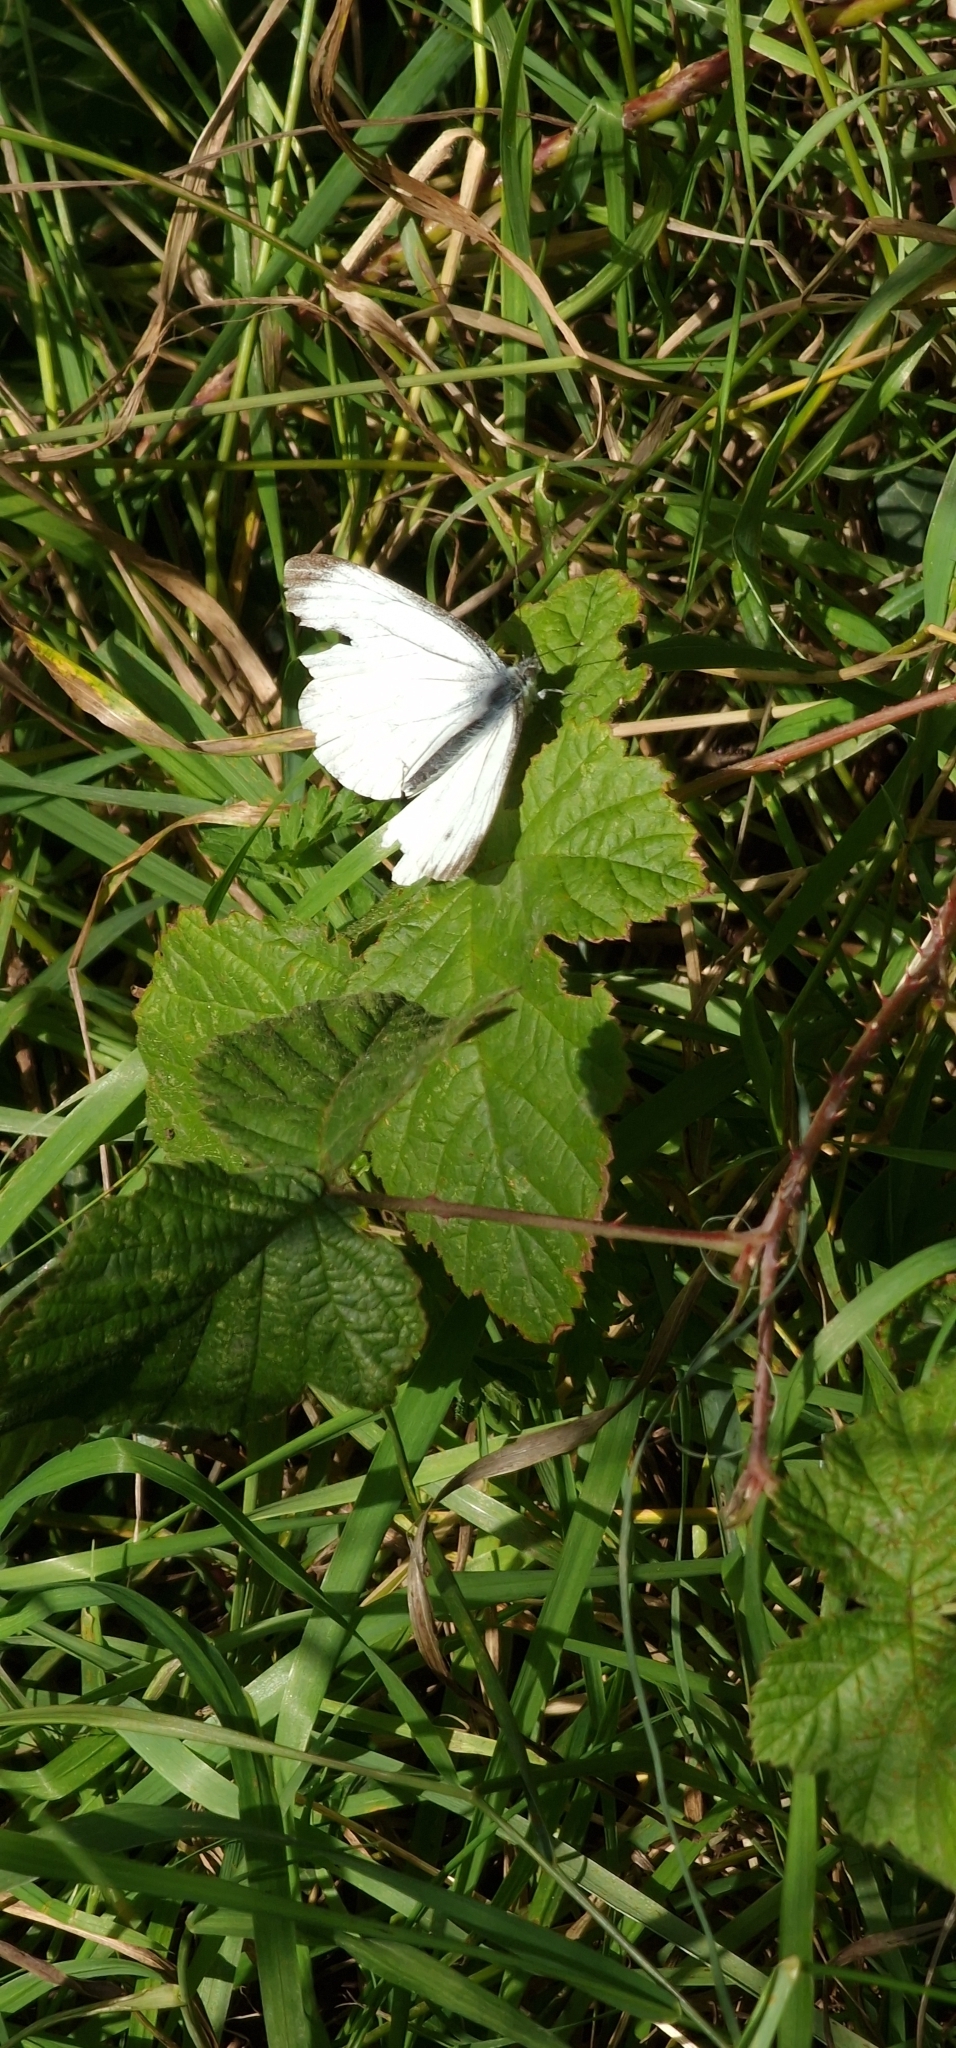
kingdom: Animalia
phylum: Arthropoda
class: Insecta
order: Lepidoptera
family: Pieridae
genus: Pieris
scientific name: Pieris napi
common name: Green-veined white
